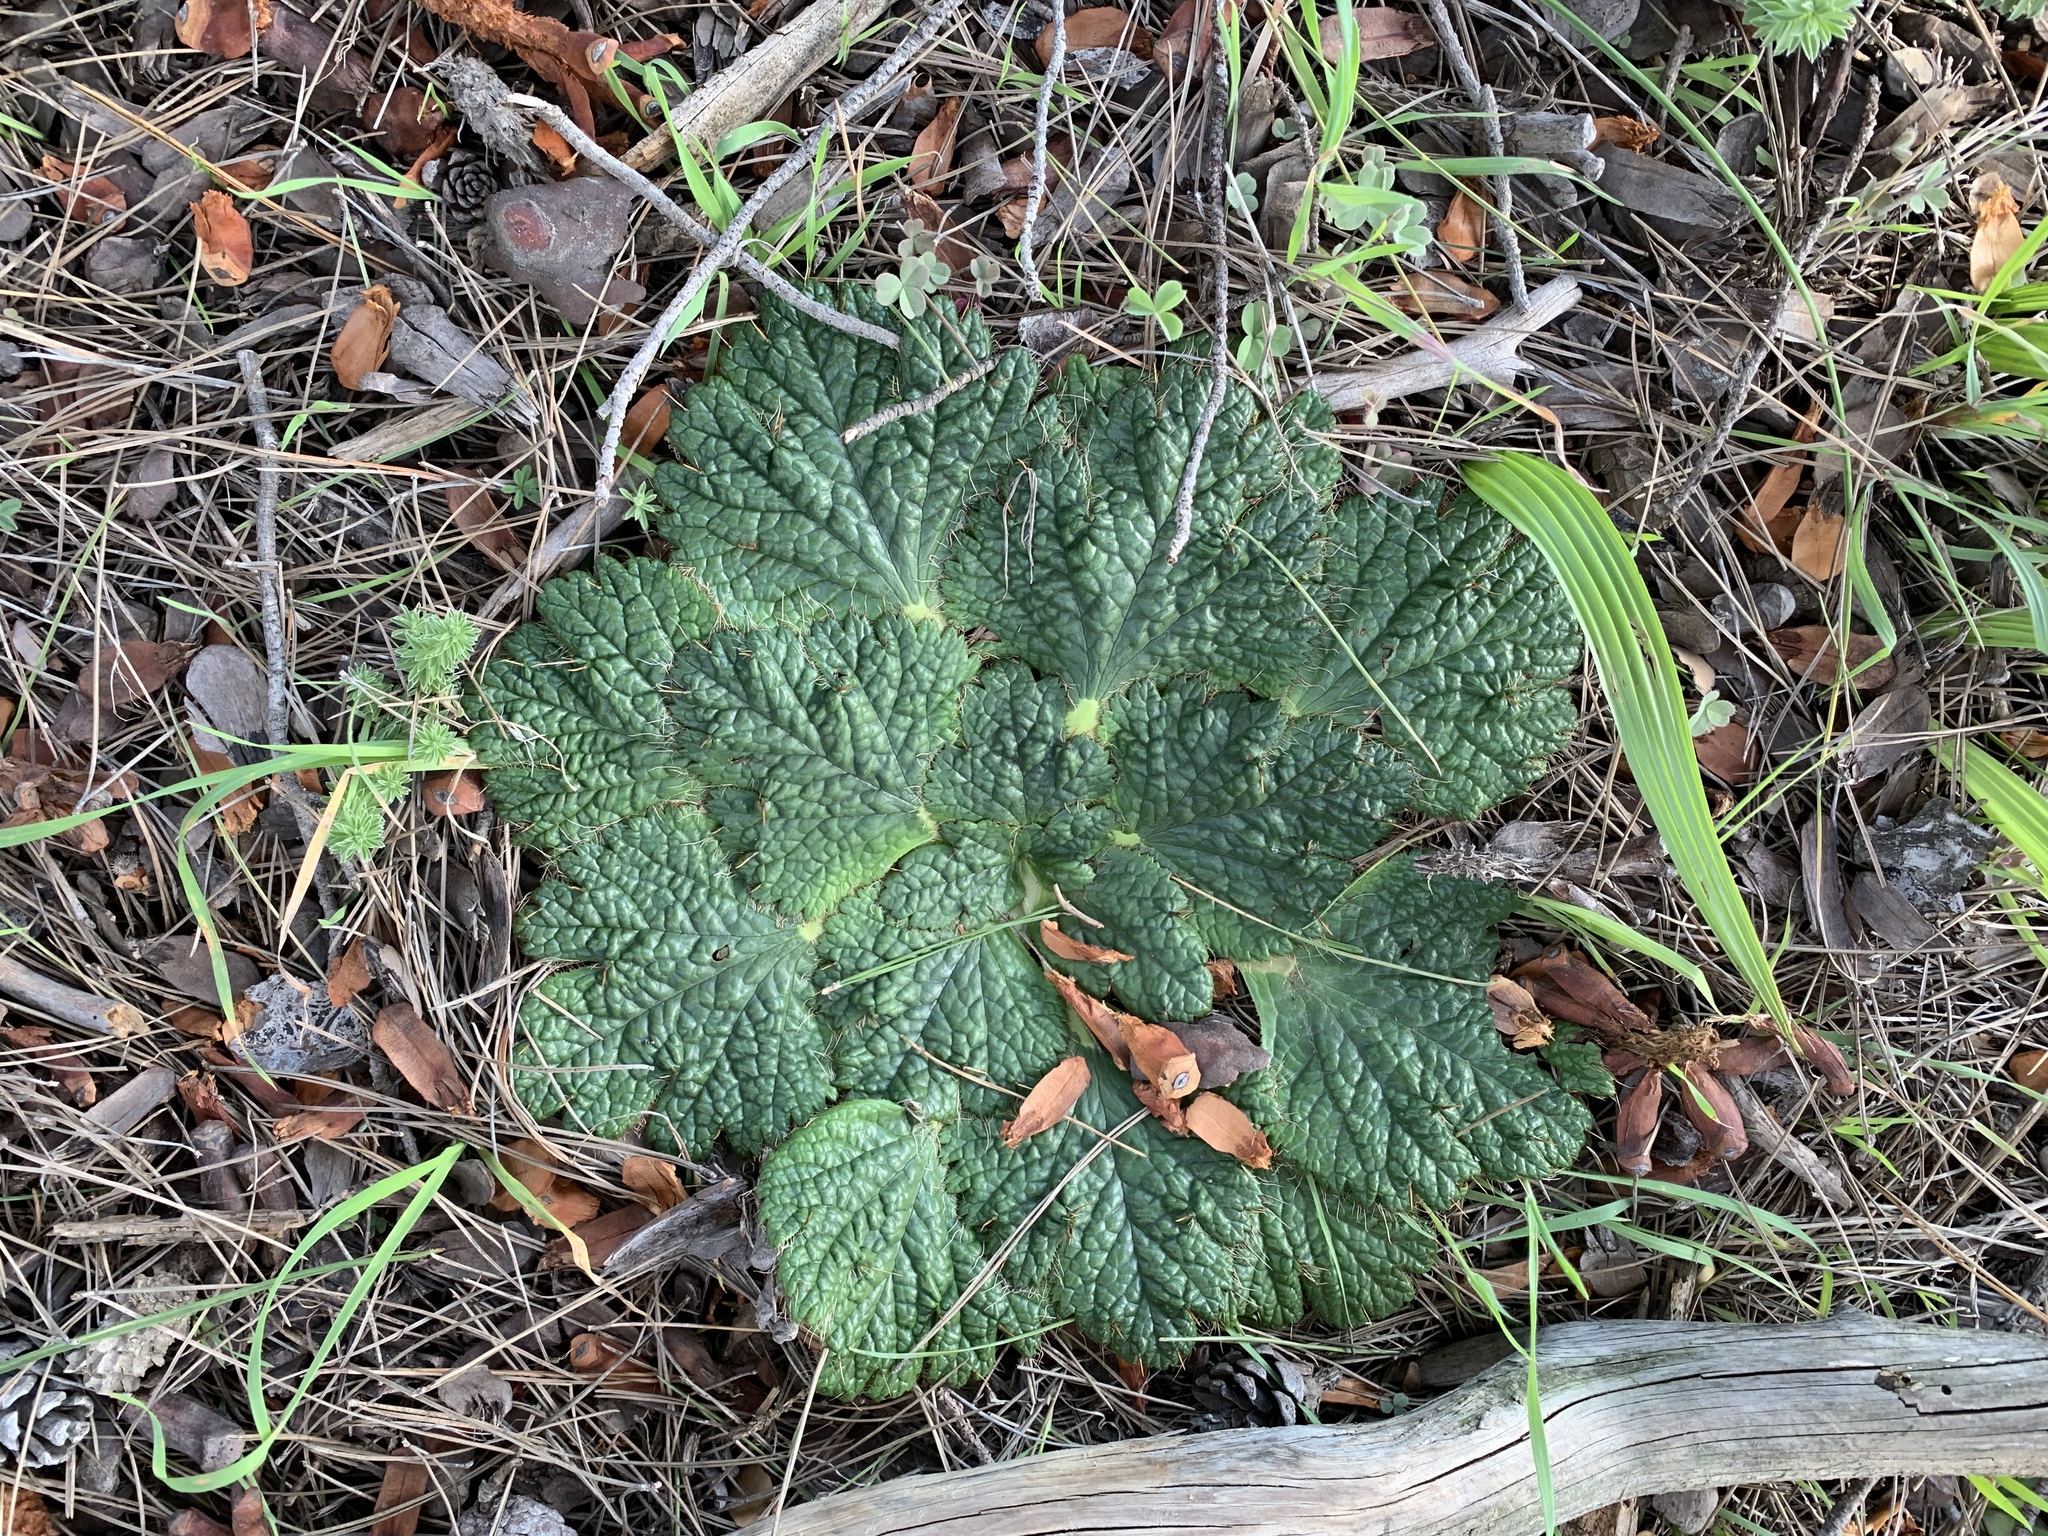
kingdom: Plantae
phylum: Tracheophyta
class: Magnoliopsida
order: Apiales
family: Apiaceae
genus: Arctopus
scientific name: Arctopus echinatus
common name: Platdoring
